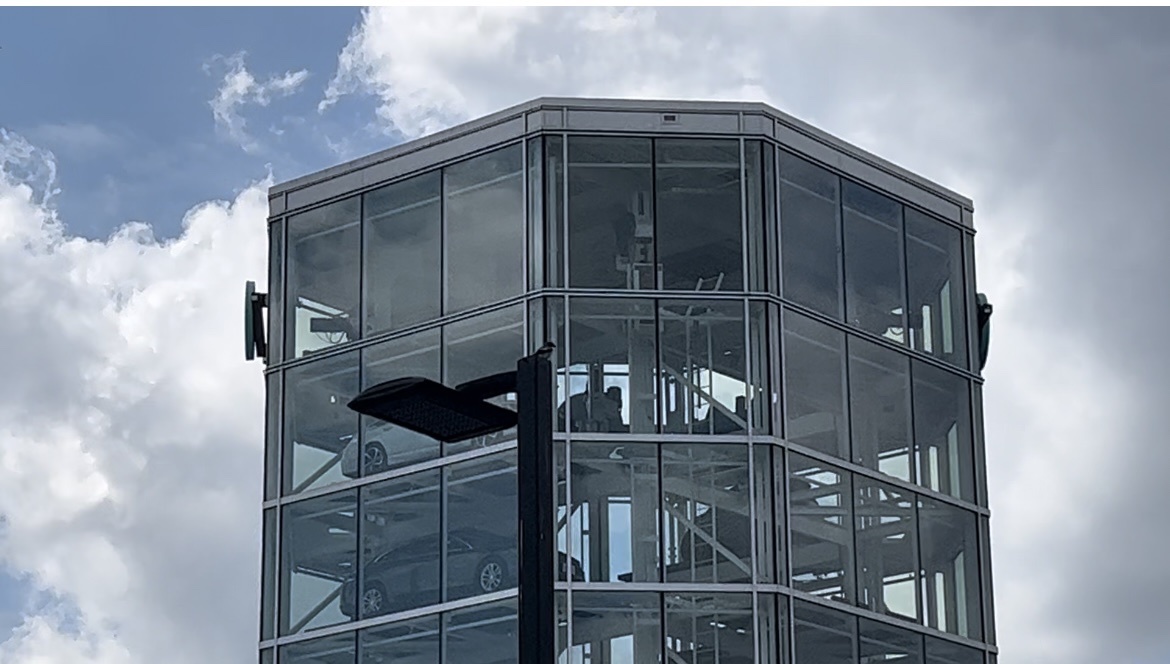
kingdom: Animalia
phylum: Chordata
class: Aves
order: Passeriformes
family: Laniidae
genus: Lanius
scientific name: Lanius ludovicianus
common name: Loggerhead shrike
